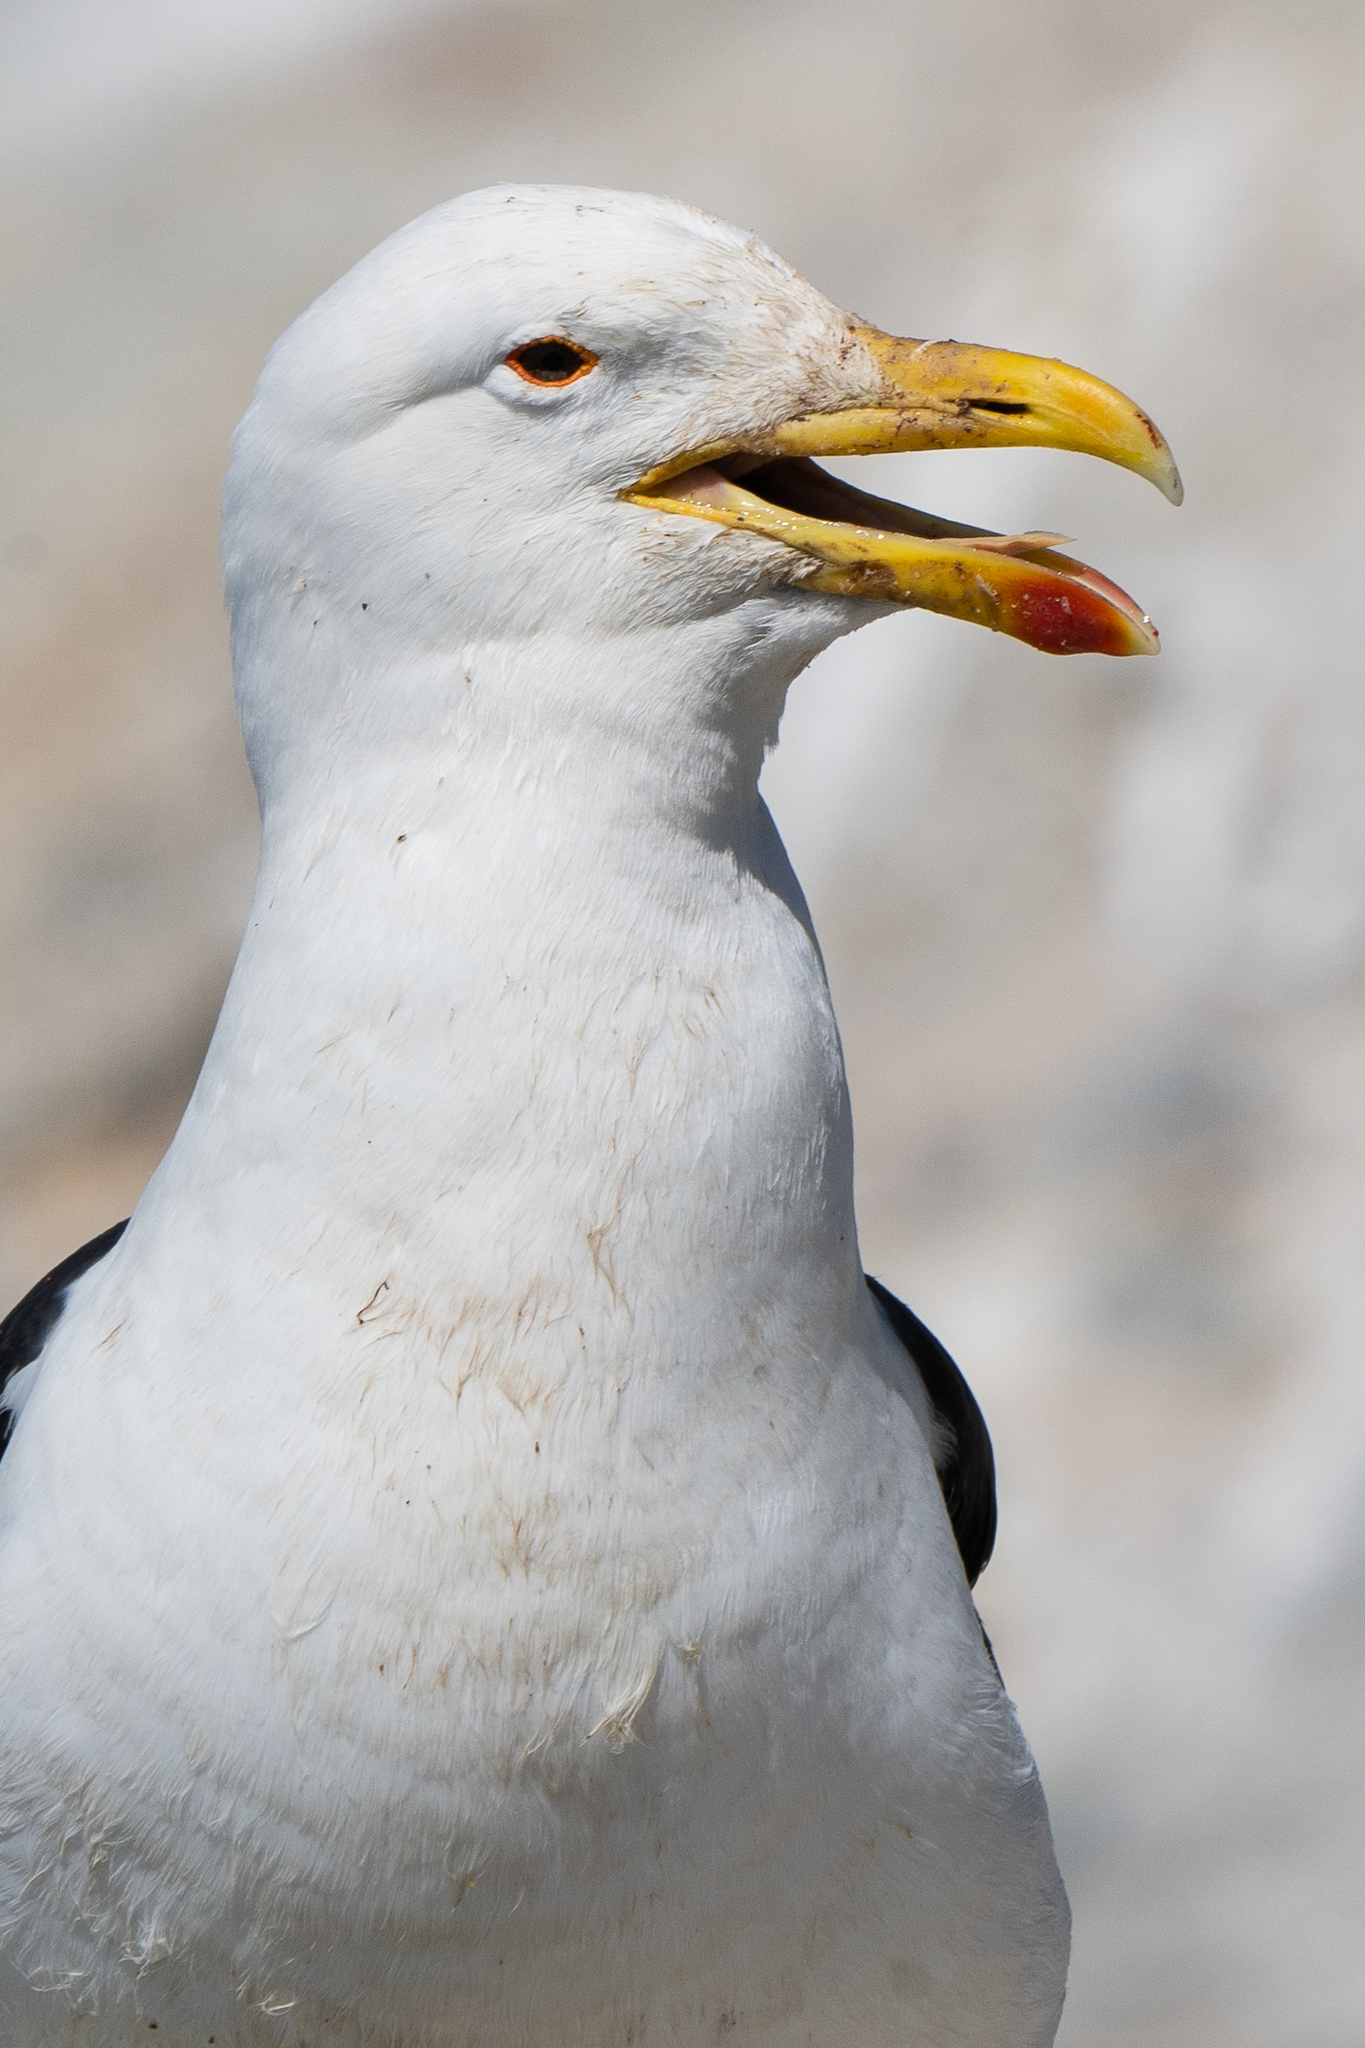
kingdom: Animalia
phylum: Chordata
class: Aves
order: Charadriiformes
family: Laridae
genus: Larus
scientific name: Larus dominicanus
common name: Kelp gull
